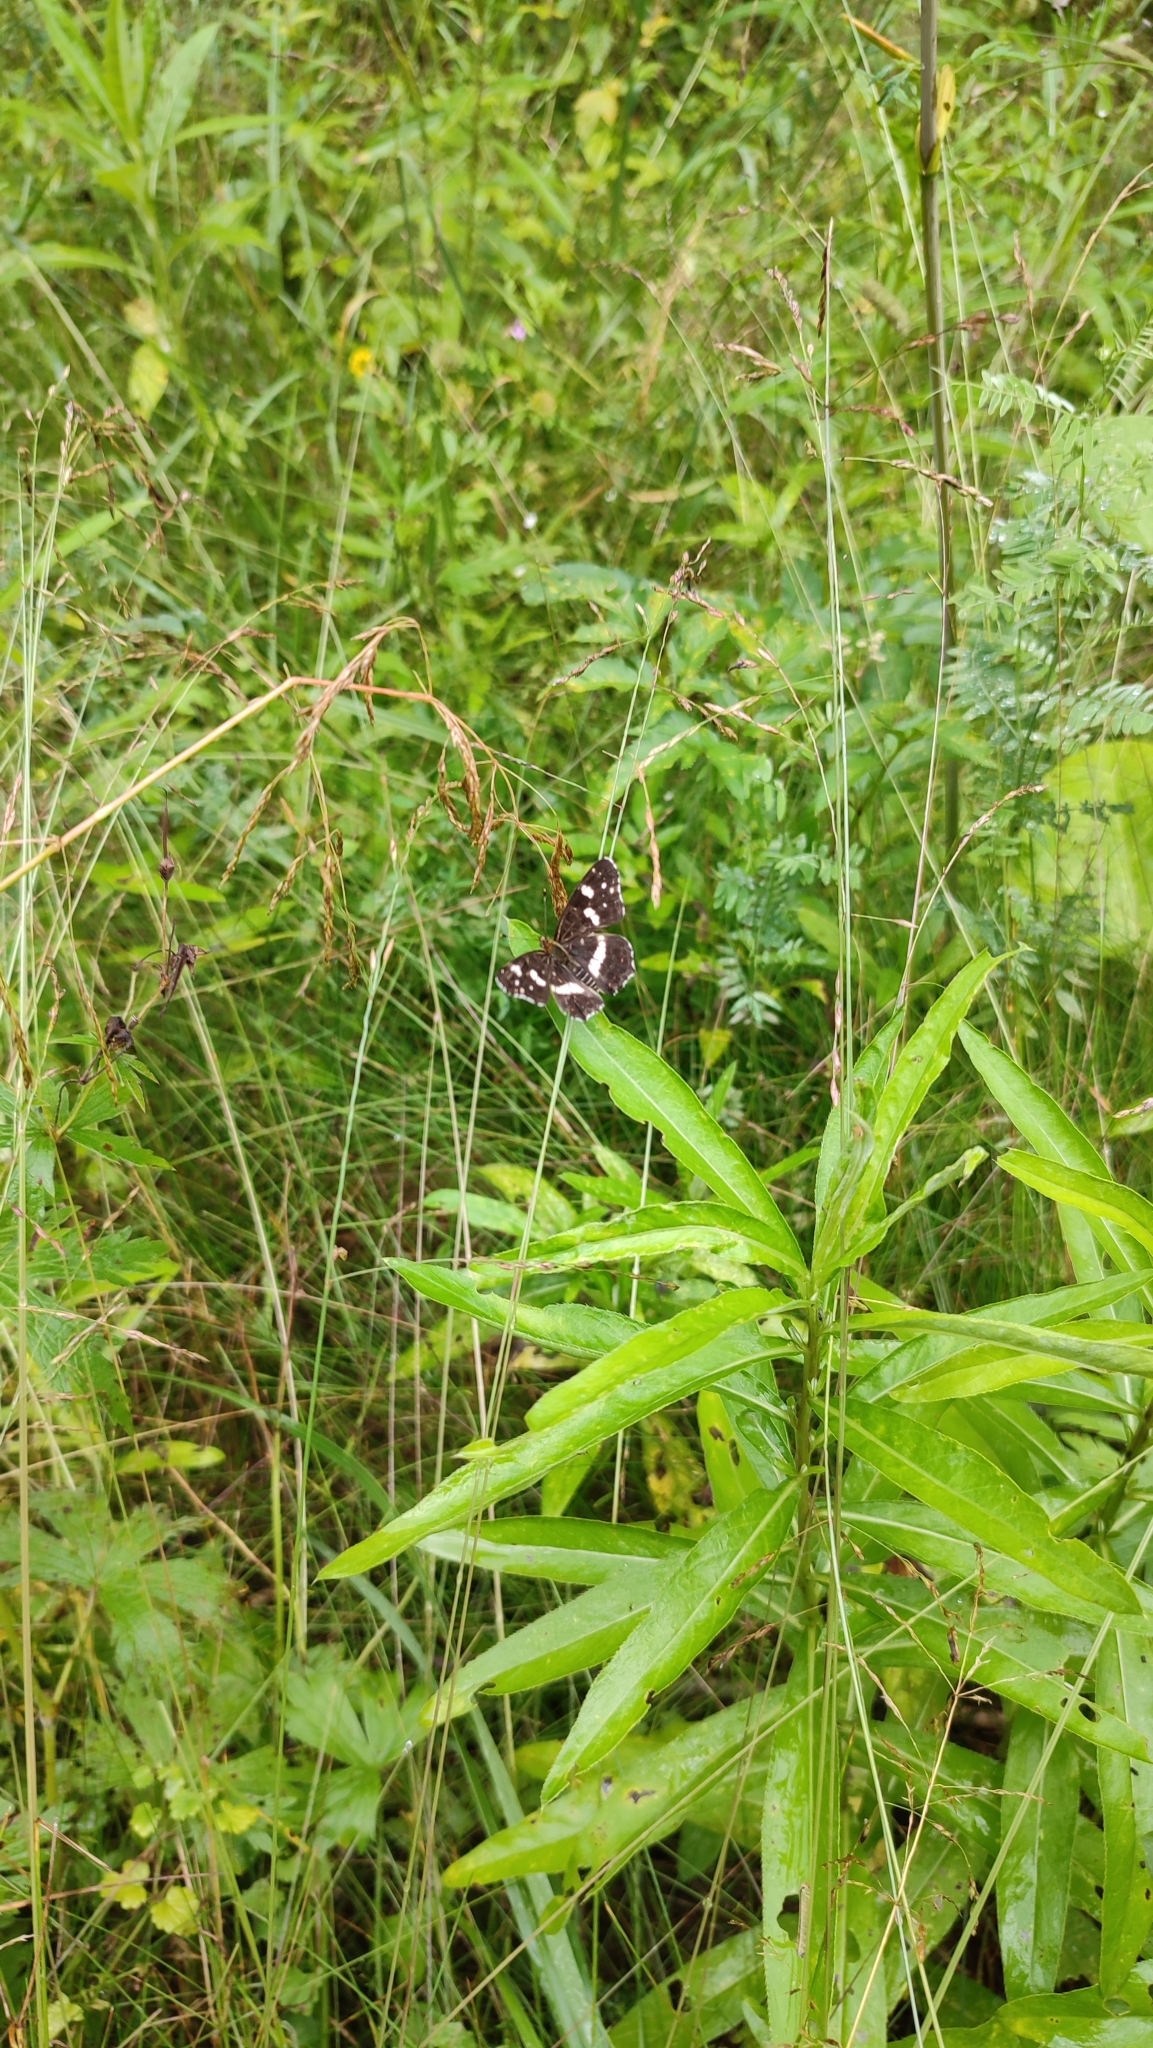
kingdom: Animalia
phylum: Arthropoda
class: Insecta
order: Lepidoptera
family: Nymphalidae
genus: Araschnia
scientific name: Araschnia levana
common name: Map butterfly
